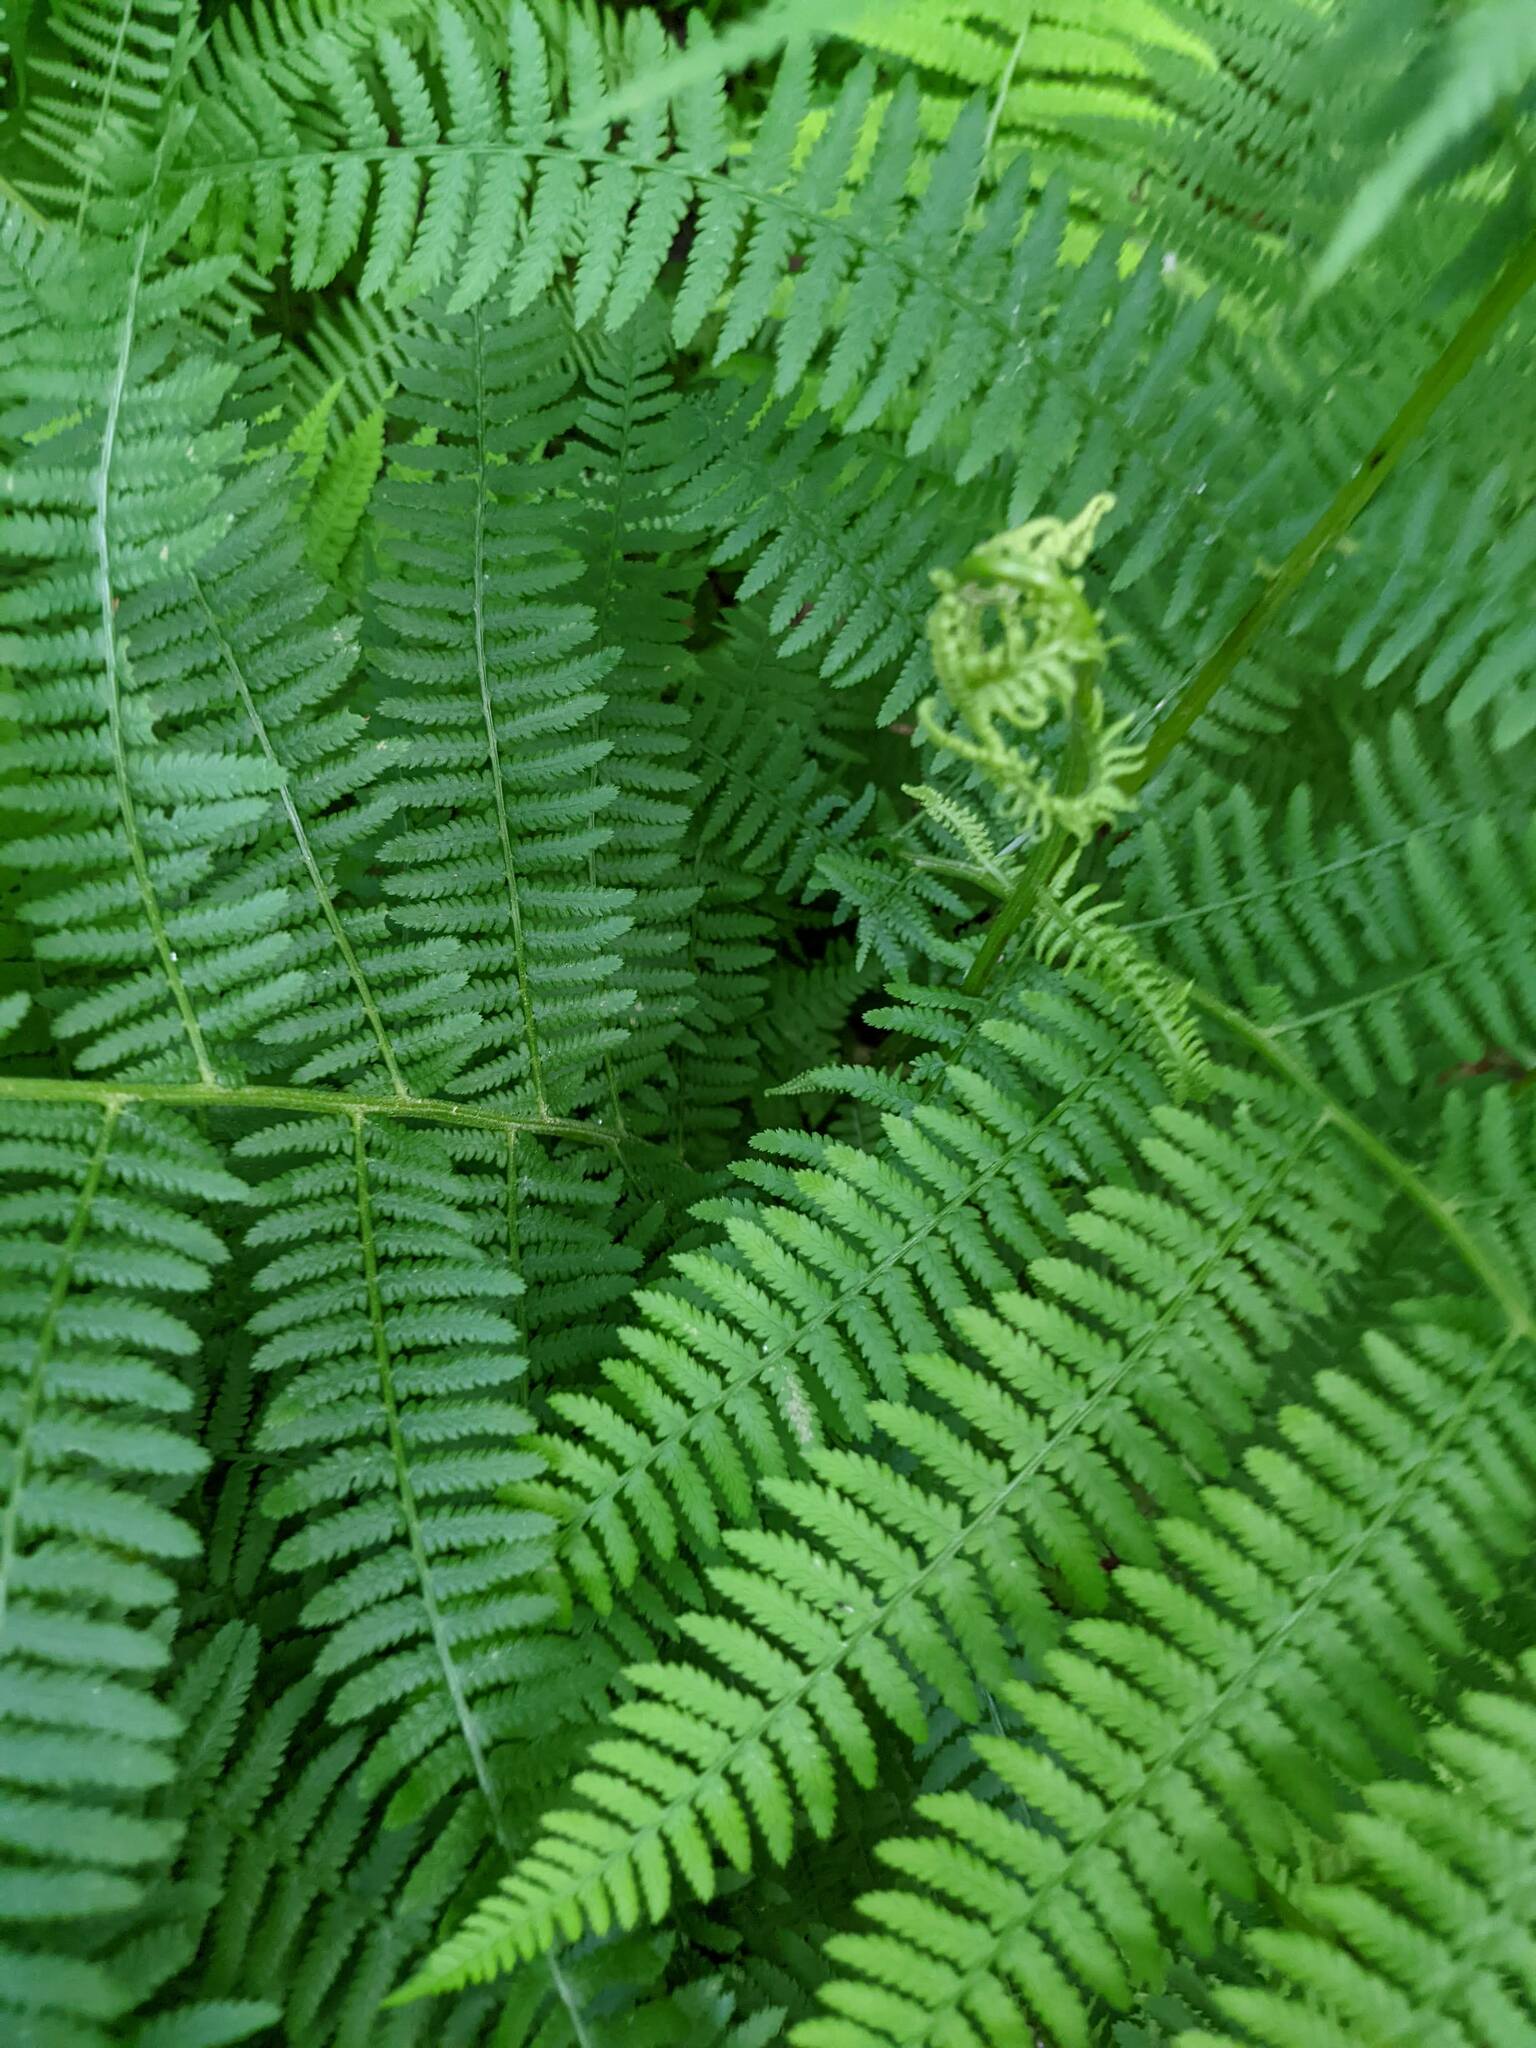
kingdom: Plantae
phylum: Tracheophyta
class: Polypodiopsida
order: Polypodiales
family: Athyriaceae
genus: Athyrium
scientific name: Athyrium angustum
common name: Northern lady fern
